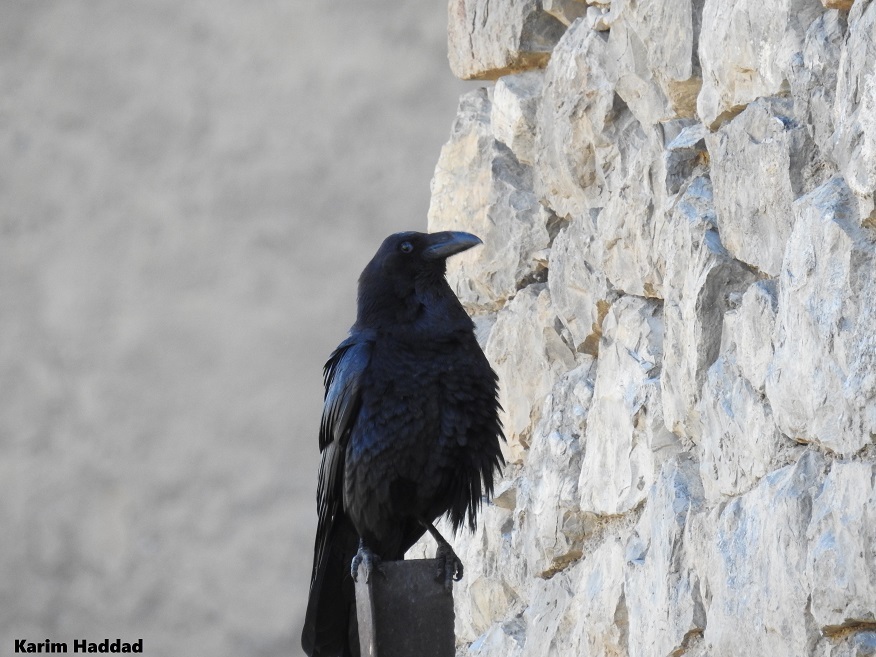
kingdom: Animalia
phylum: Chordata
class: Aves
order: Passeriformes
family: Corvidae
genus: Corvus
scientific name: Corvus corax
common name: Common raven
